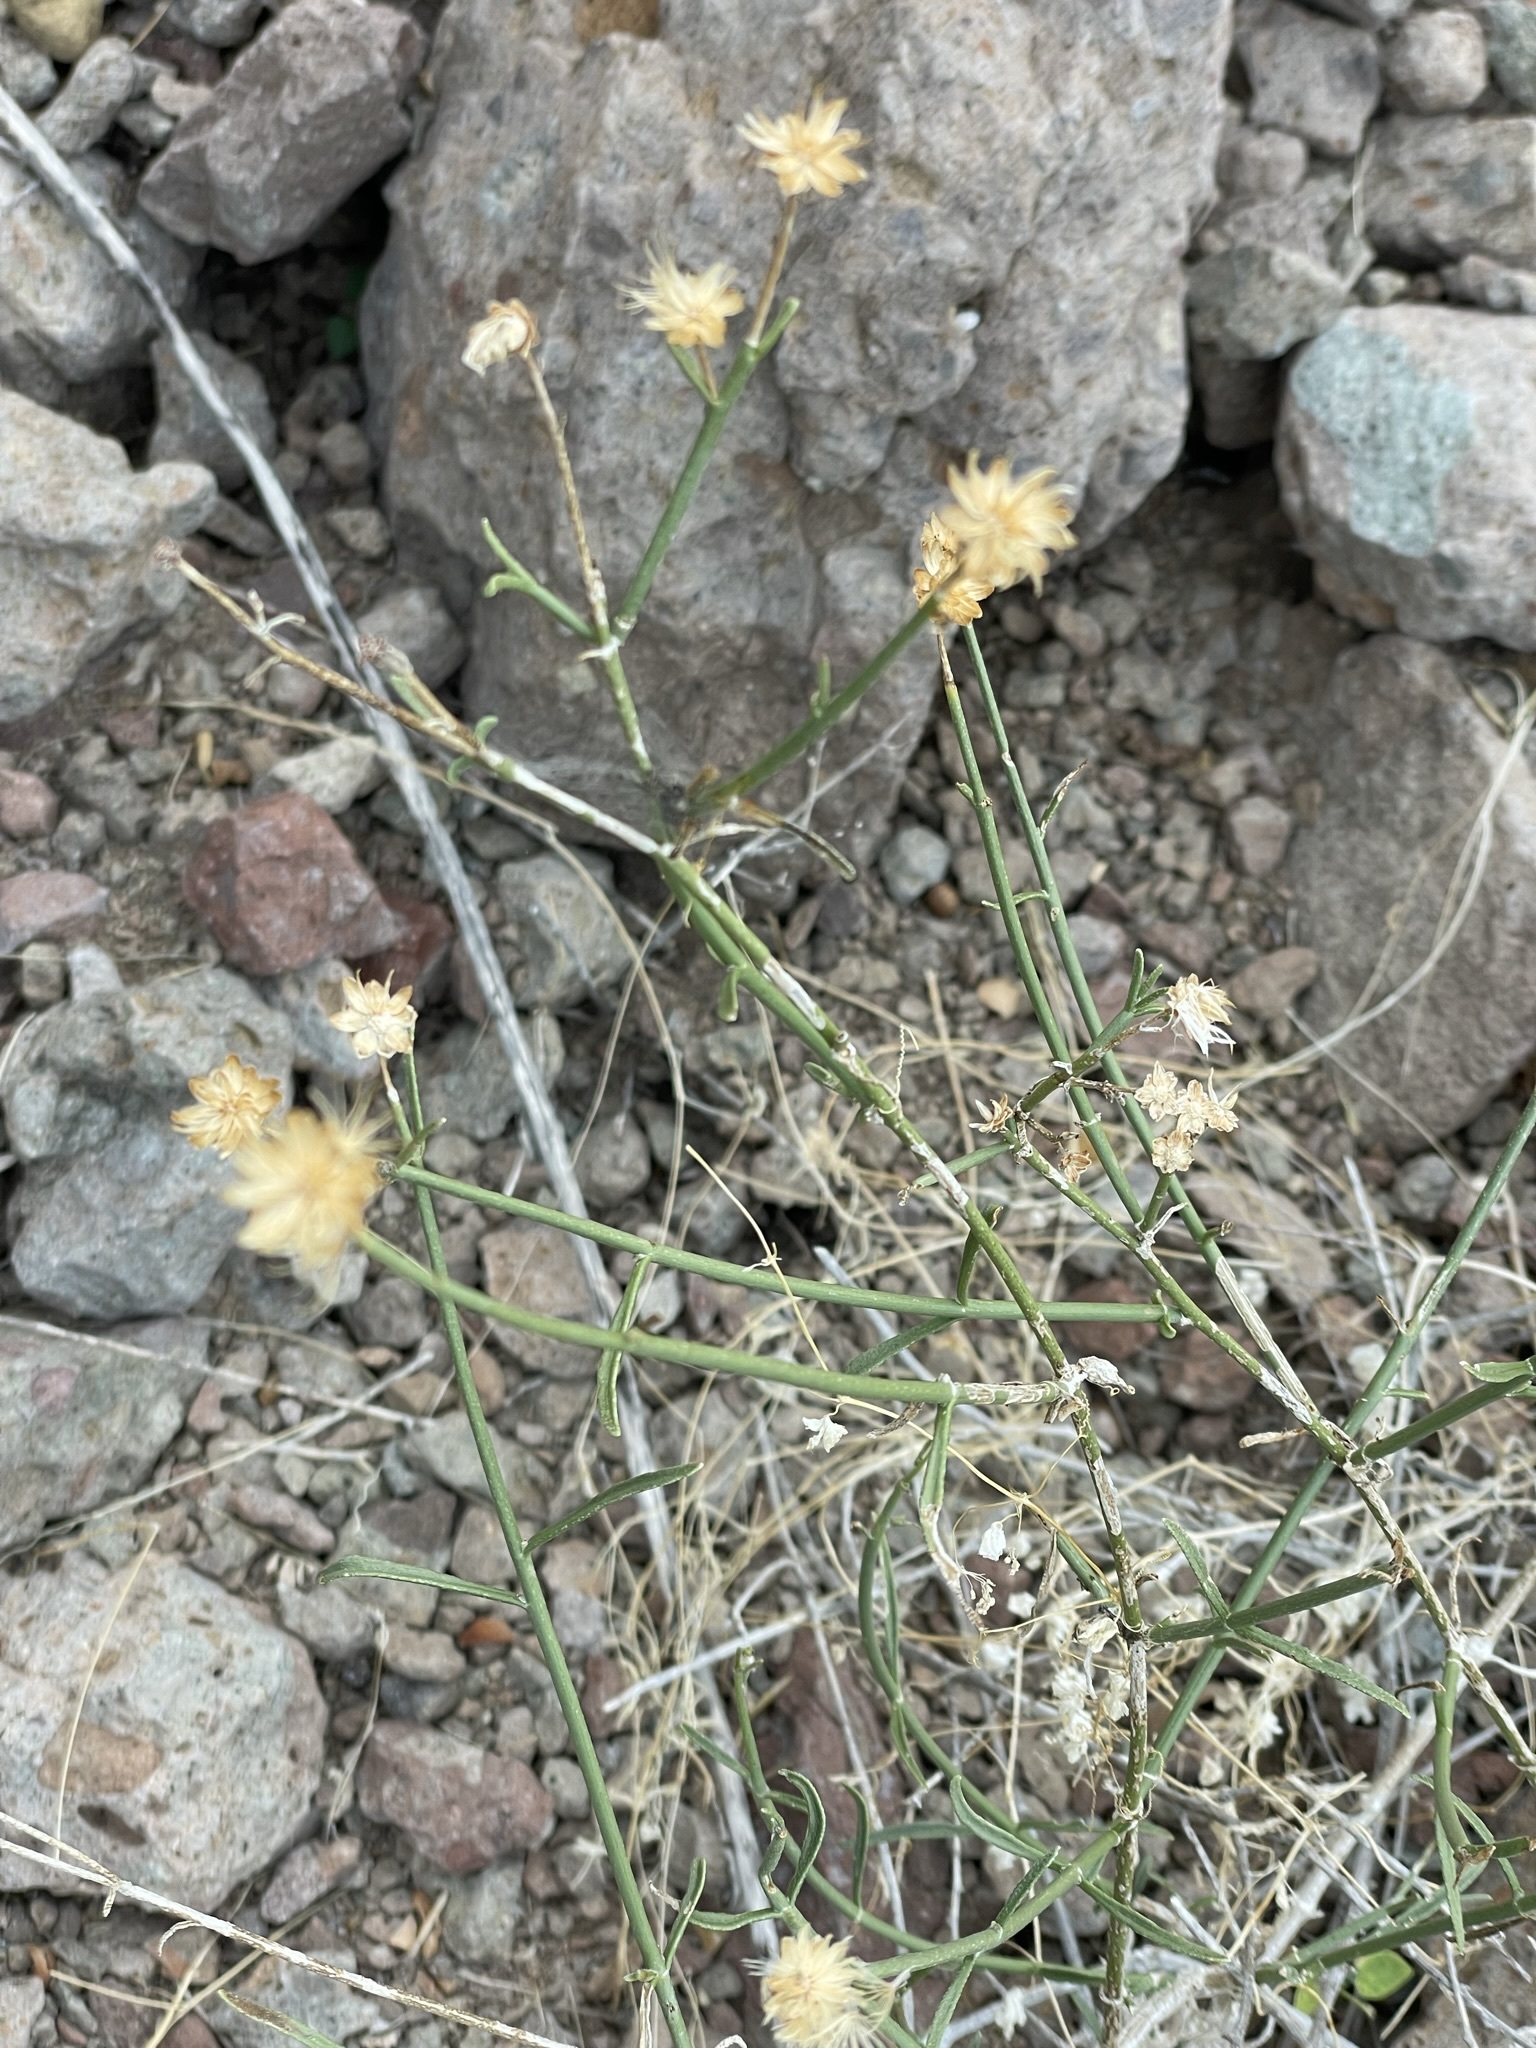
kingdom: Plantae
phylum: Tracheophyta
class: Magnoliopsida
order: Asterales
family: Asteraceae
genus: Bebbia
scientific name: Bebbia juncea
